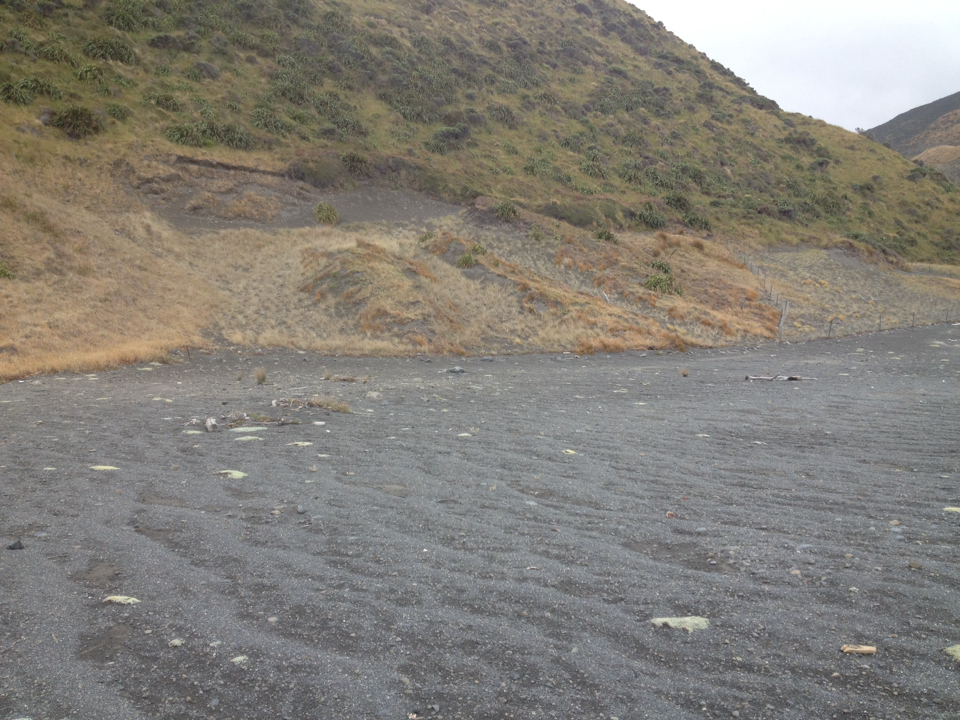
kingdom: Plantae
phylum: Tracheophyta
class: Liliopsida
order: Poales
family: Poaceae
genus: Spinifex
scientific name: Spinifex sericeus
